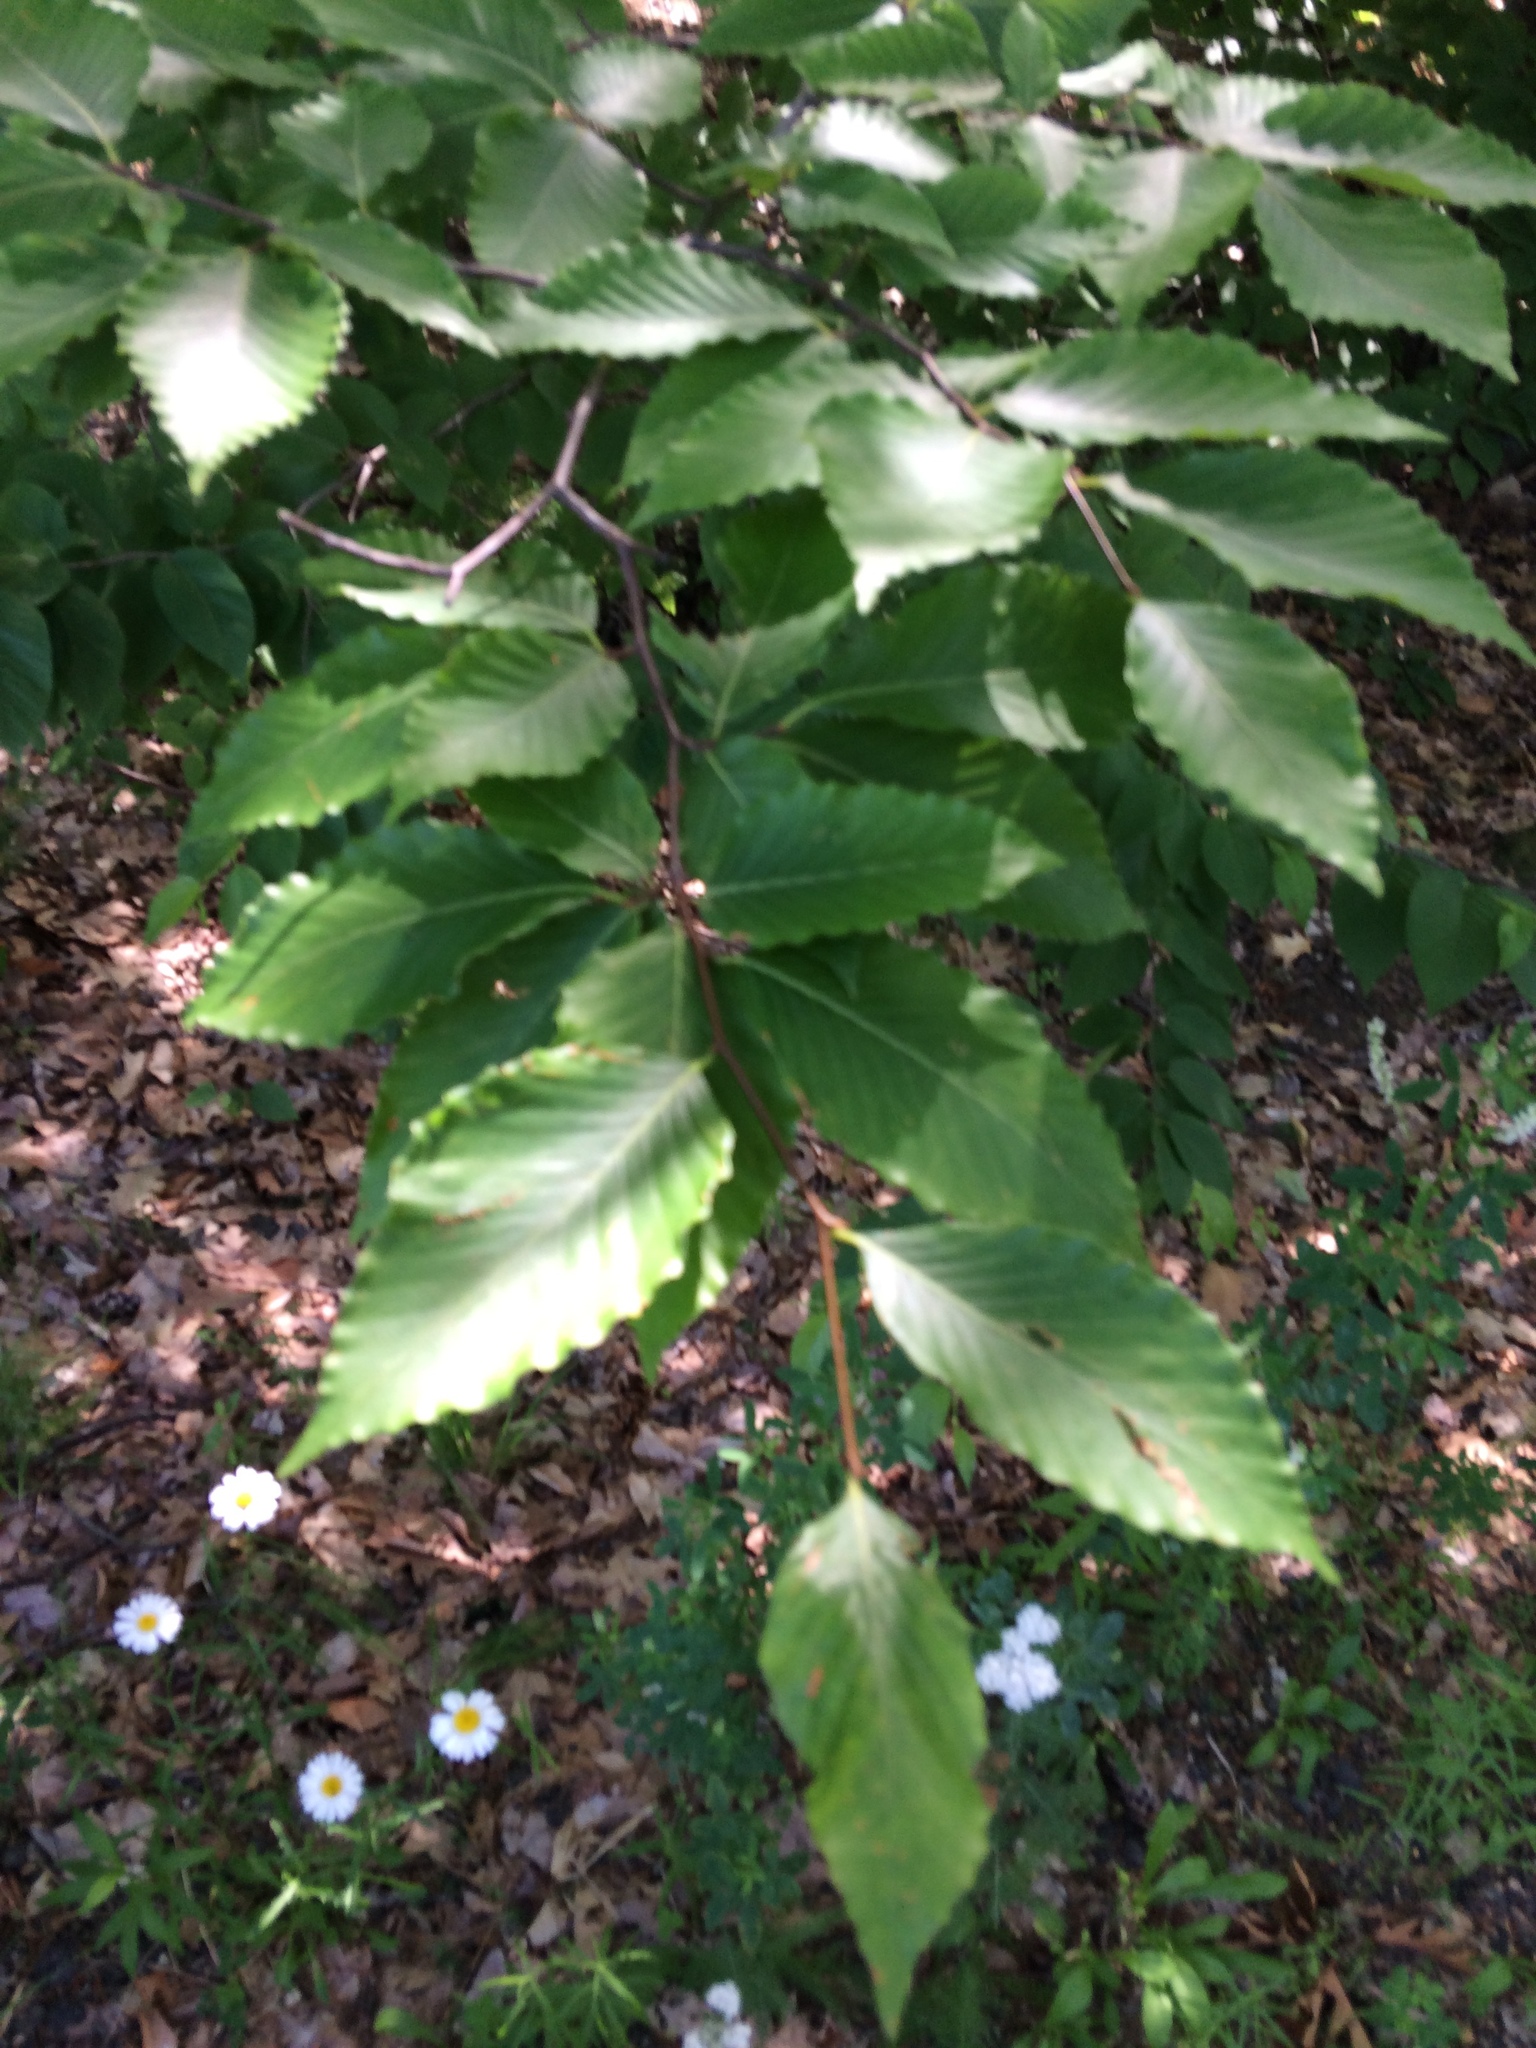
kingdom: Plantae
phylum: Tracheophyta
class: Magnoliopsida
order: Fagales
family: Fagaceae
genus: Fagus
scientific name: Fagus grandifolia
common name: American beech
